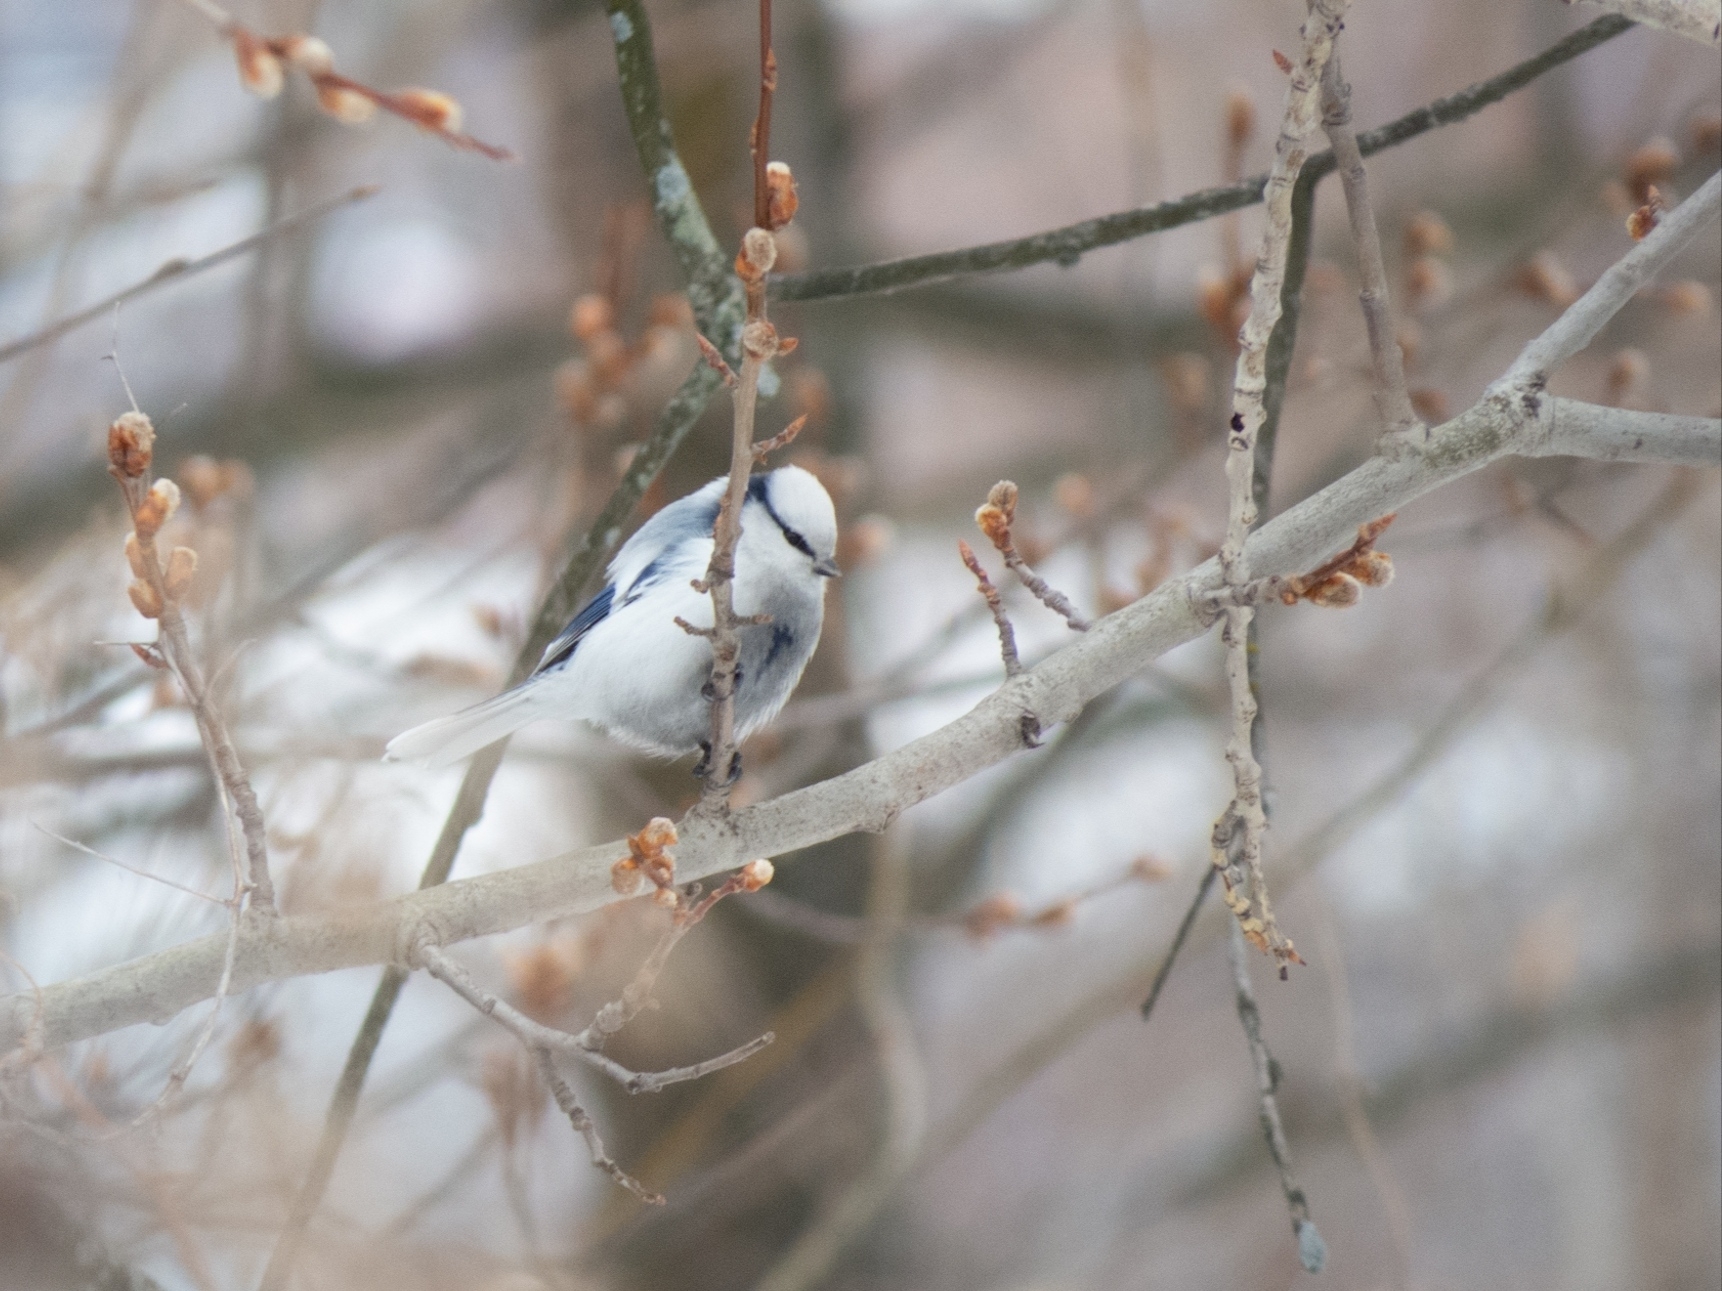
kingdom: Animalia
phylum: Chordata
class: Aves
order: Passeriformes
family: Paridae
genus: Cyanistes
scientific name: Cyanistes cyanus
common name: Azure tit
